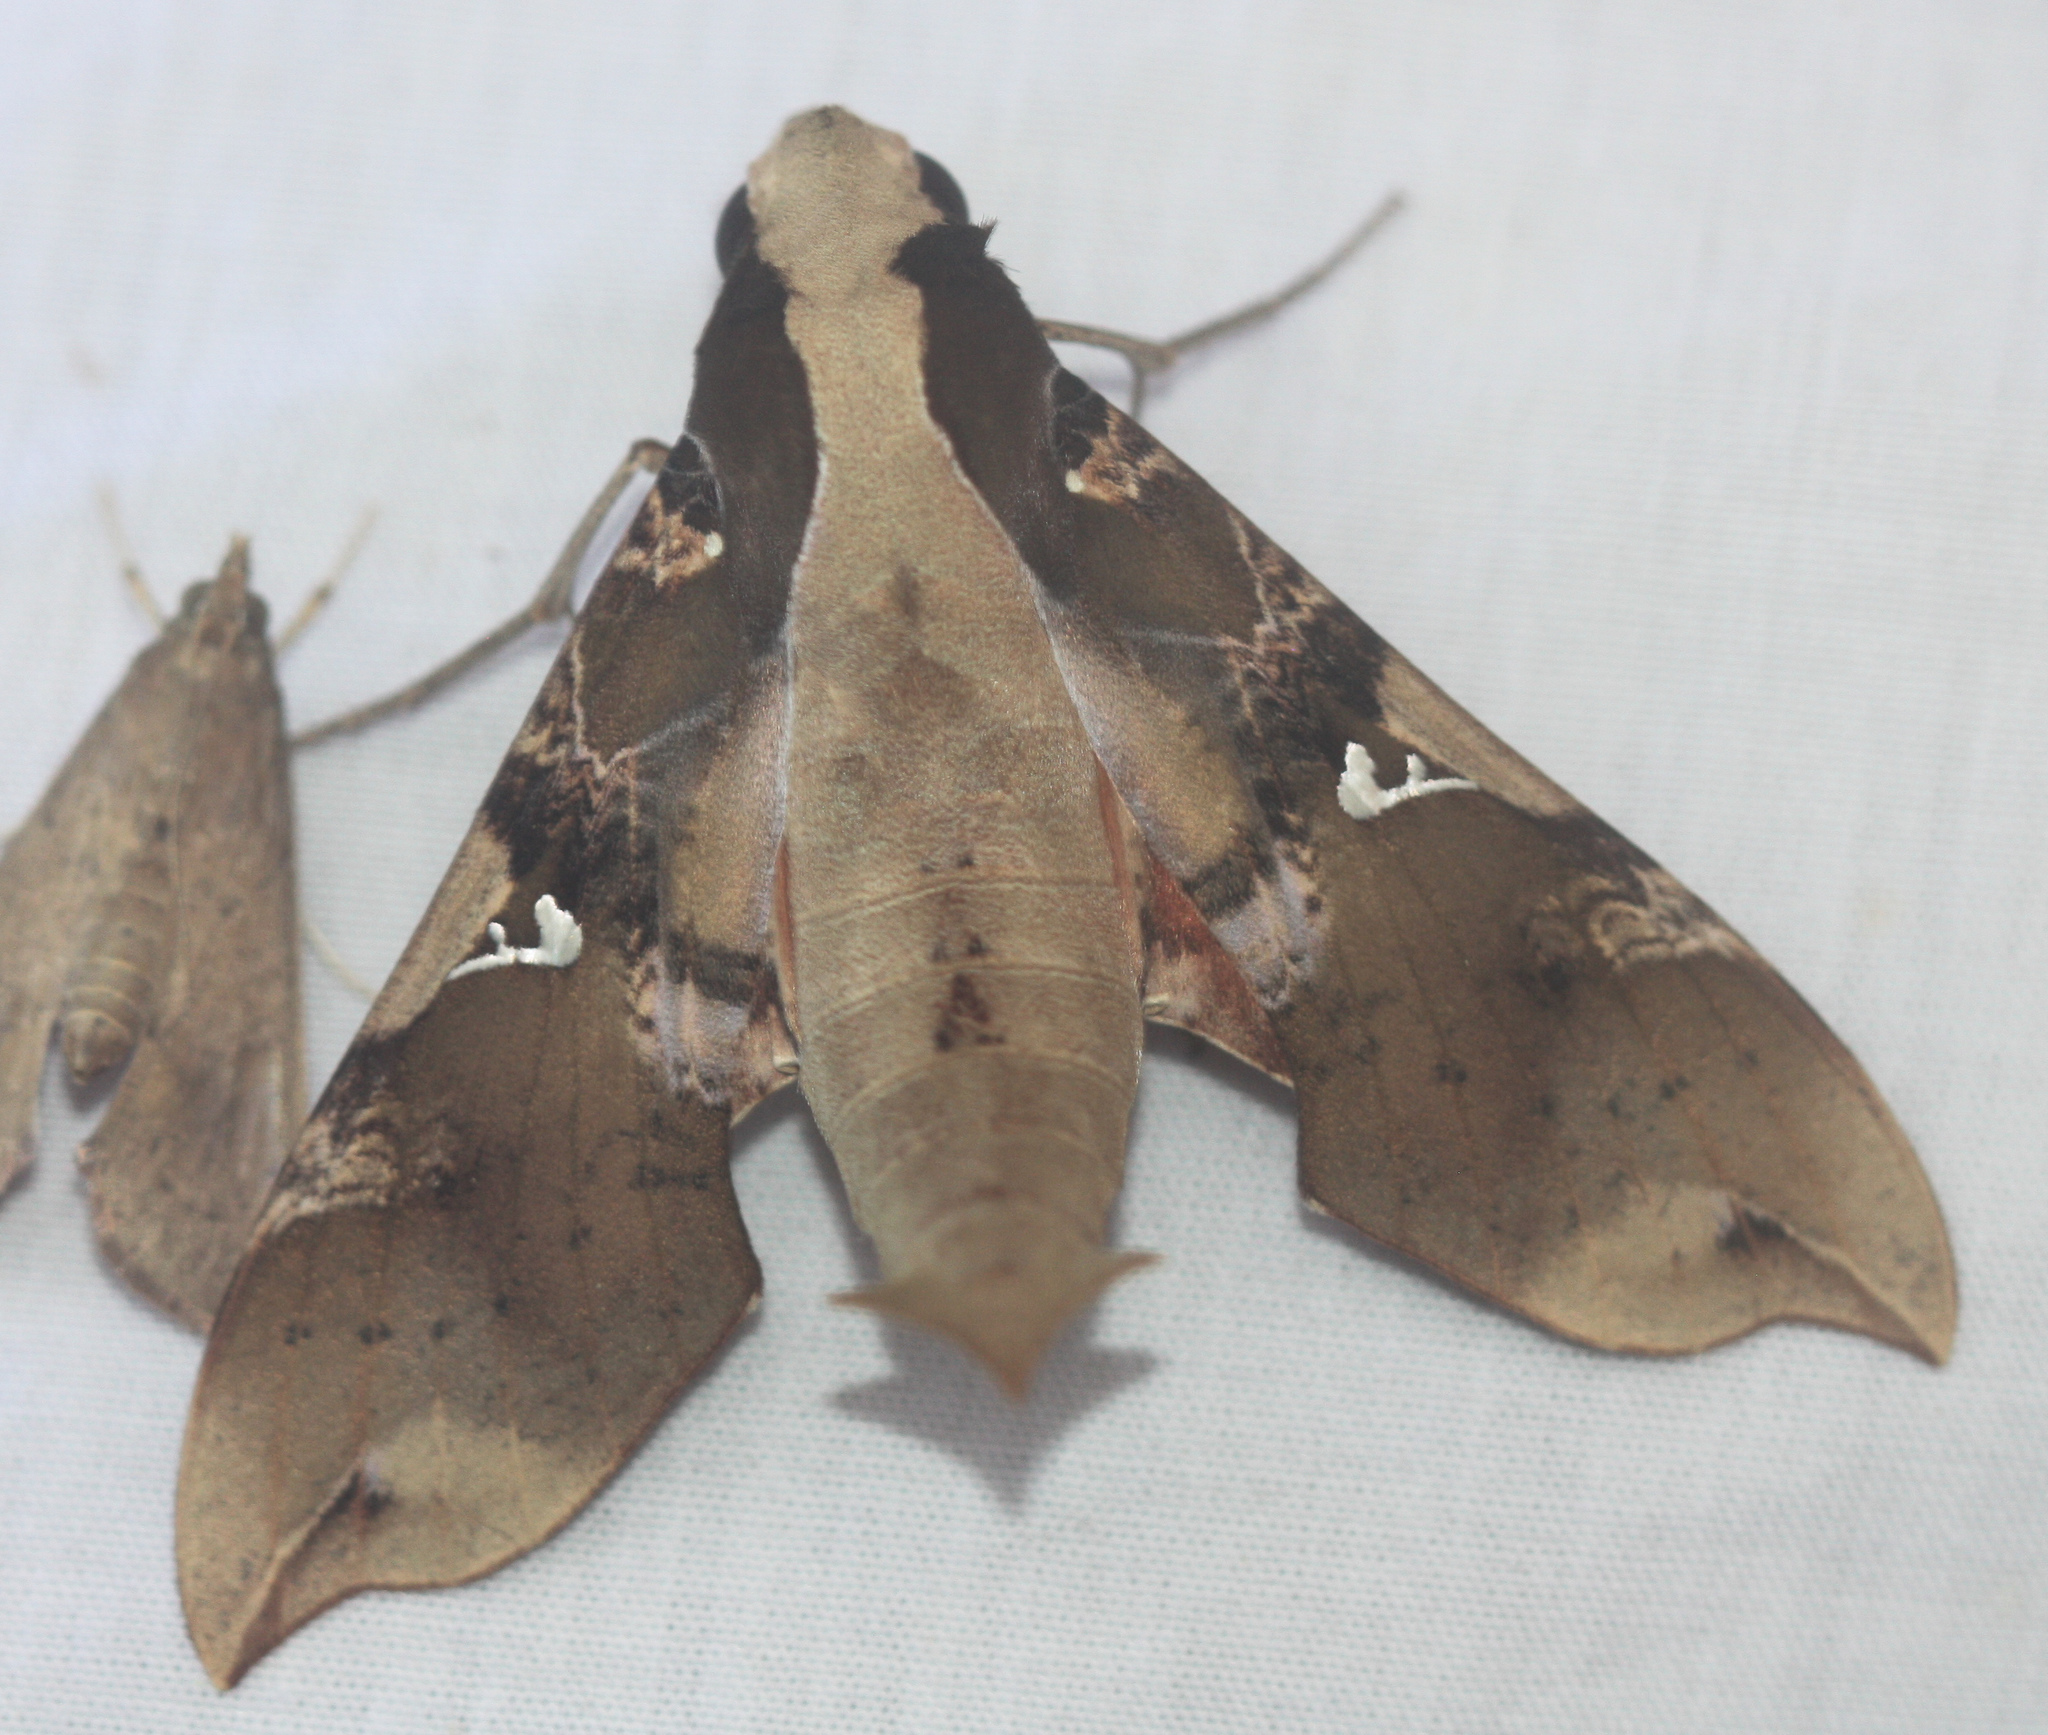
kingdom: Animalia
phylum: Arthropoda
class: Insecta
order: Lepidoptera
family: Sphingidae
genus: Callionima
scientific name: Callionima parce
